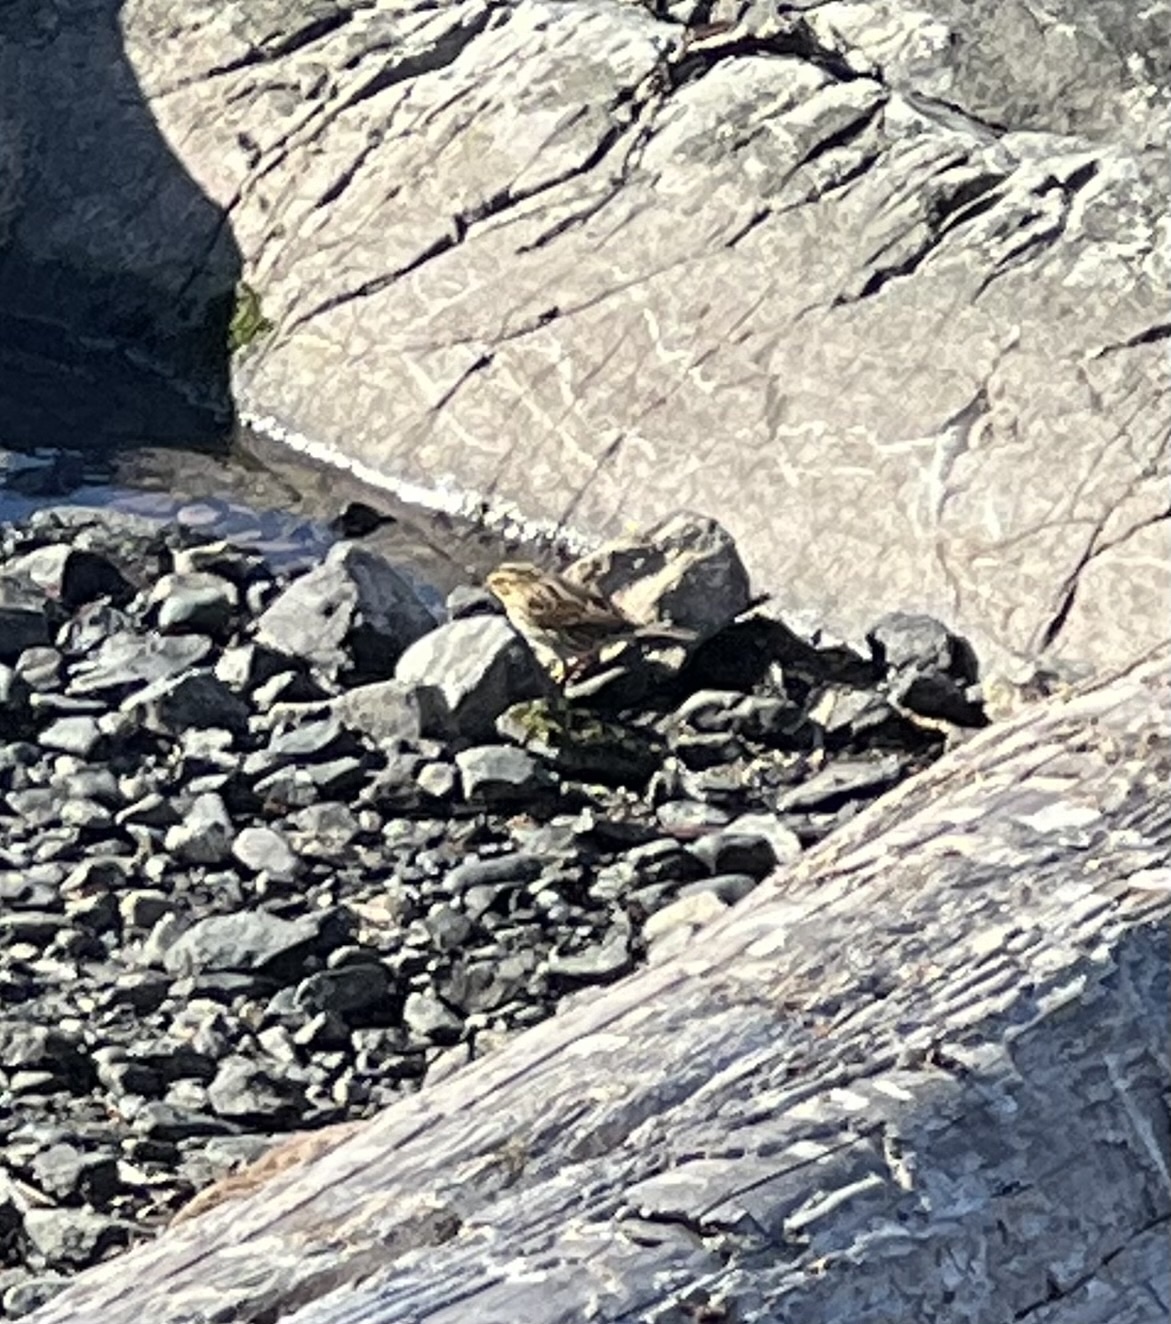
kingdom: Animalia
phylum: Chordata
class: Aves
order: Passeriformes
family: Passerellidae
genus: Passerculus
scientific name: Passerculus sandwichensis
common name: Savannah sparrow
